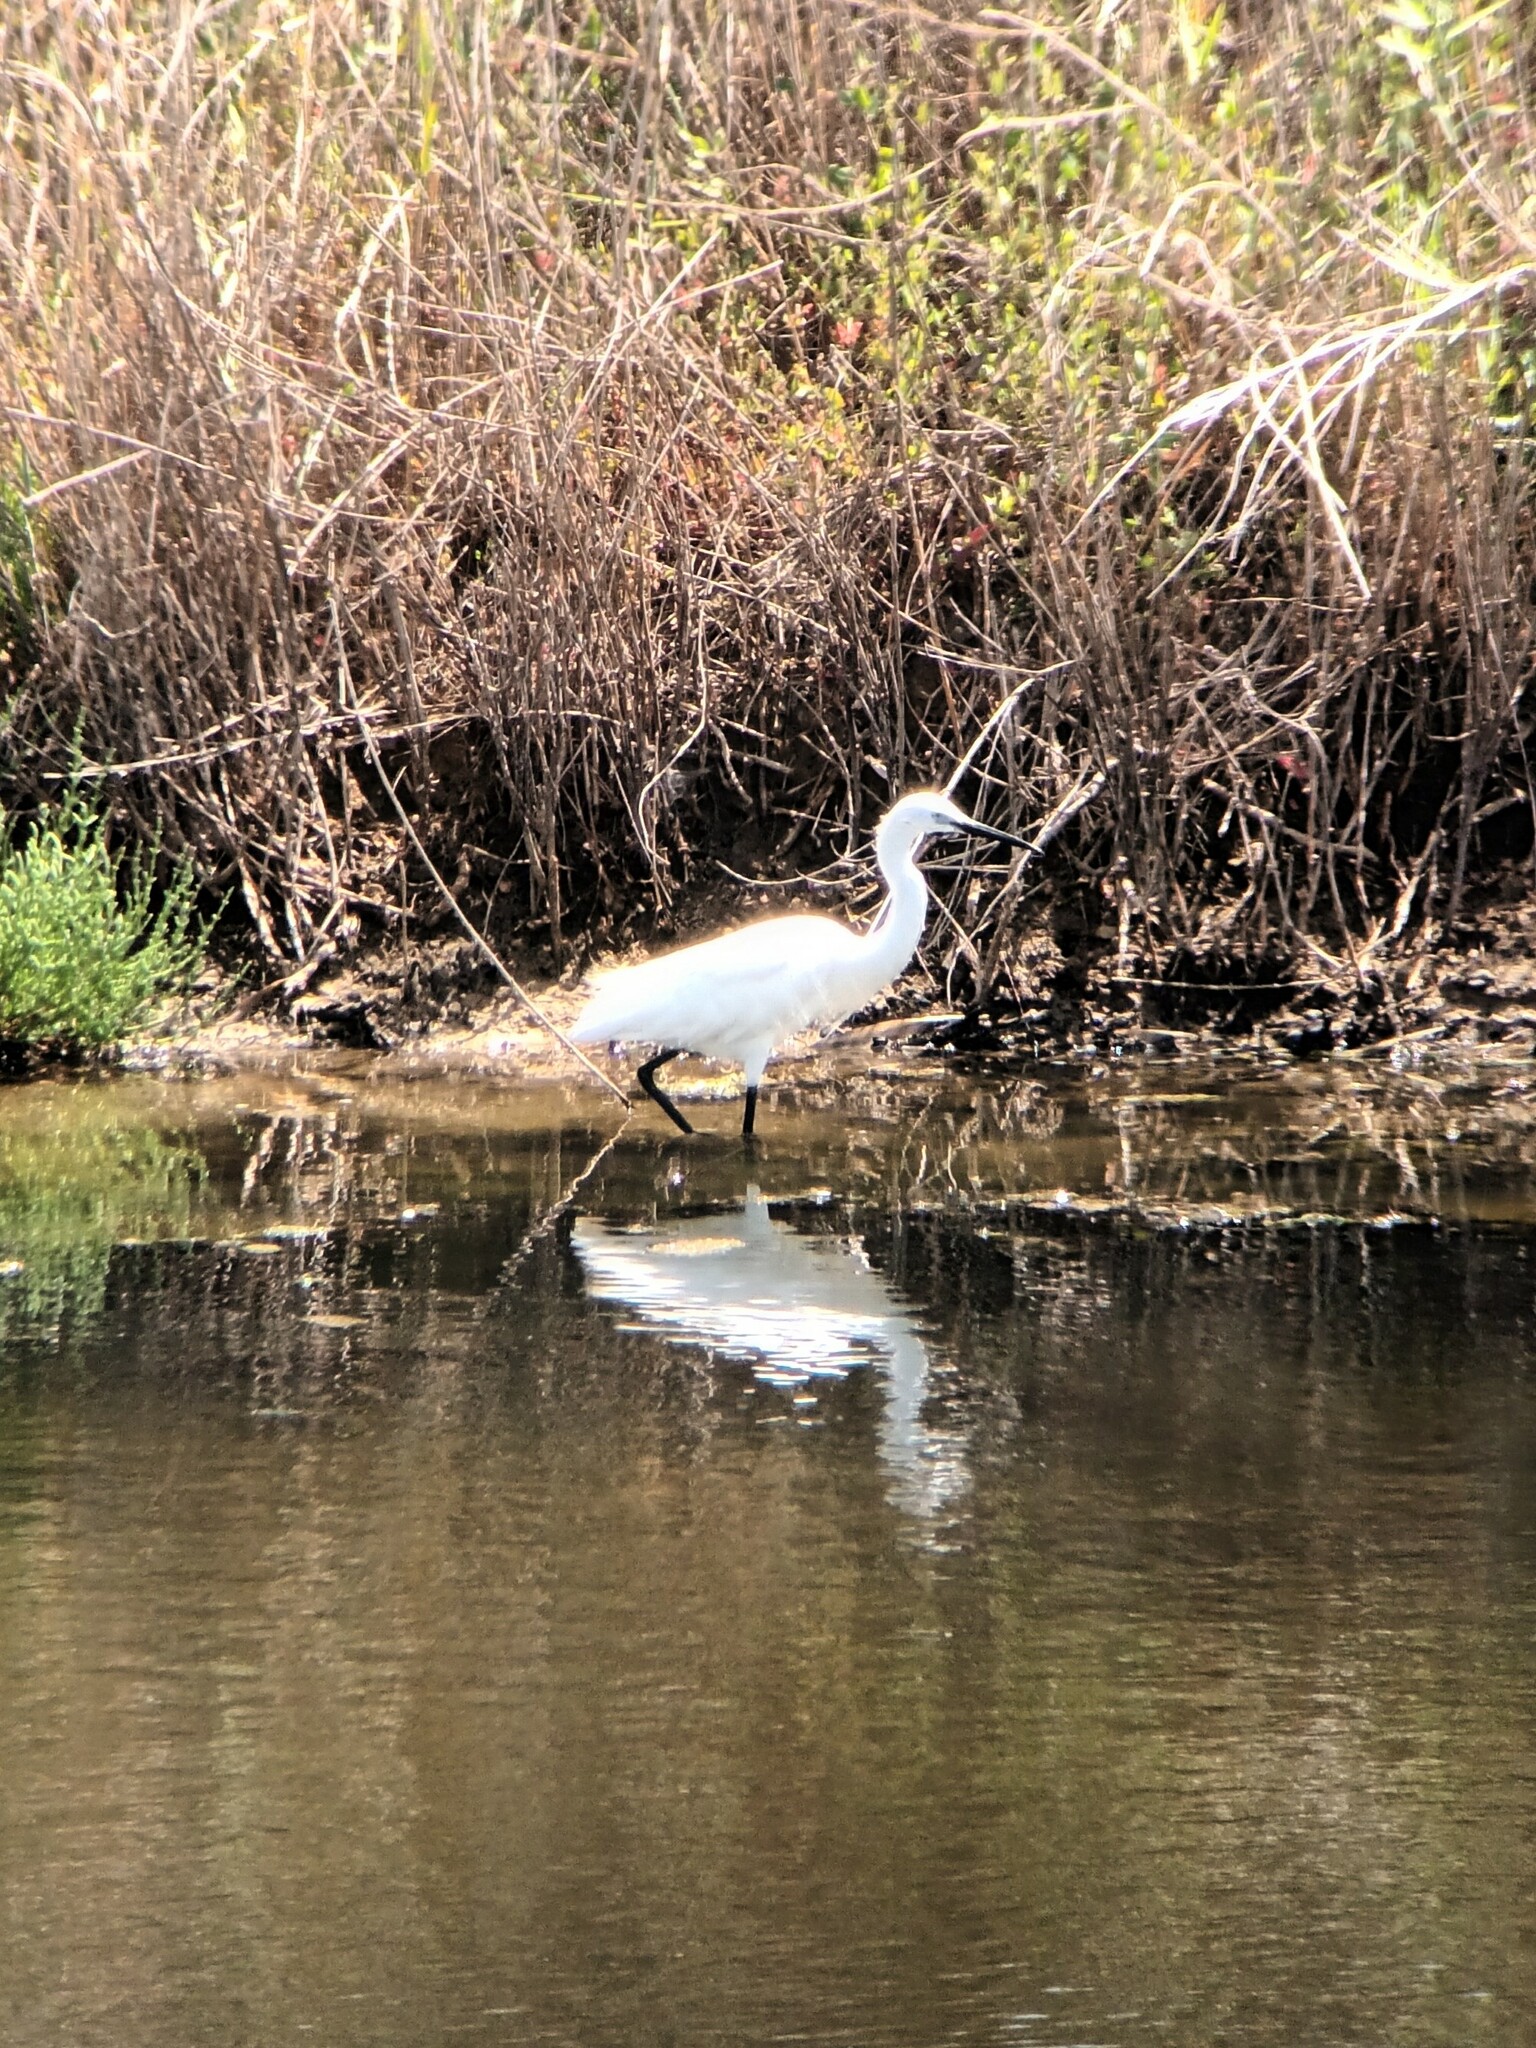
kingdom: Animalia
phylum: Chordata
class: Aves
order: Pelecaniformes
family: Ardeidae
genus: Egretta
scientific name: Egretta garzetta
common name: Little egret
